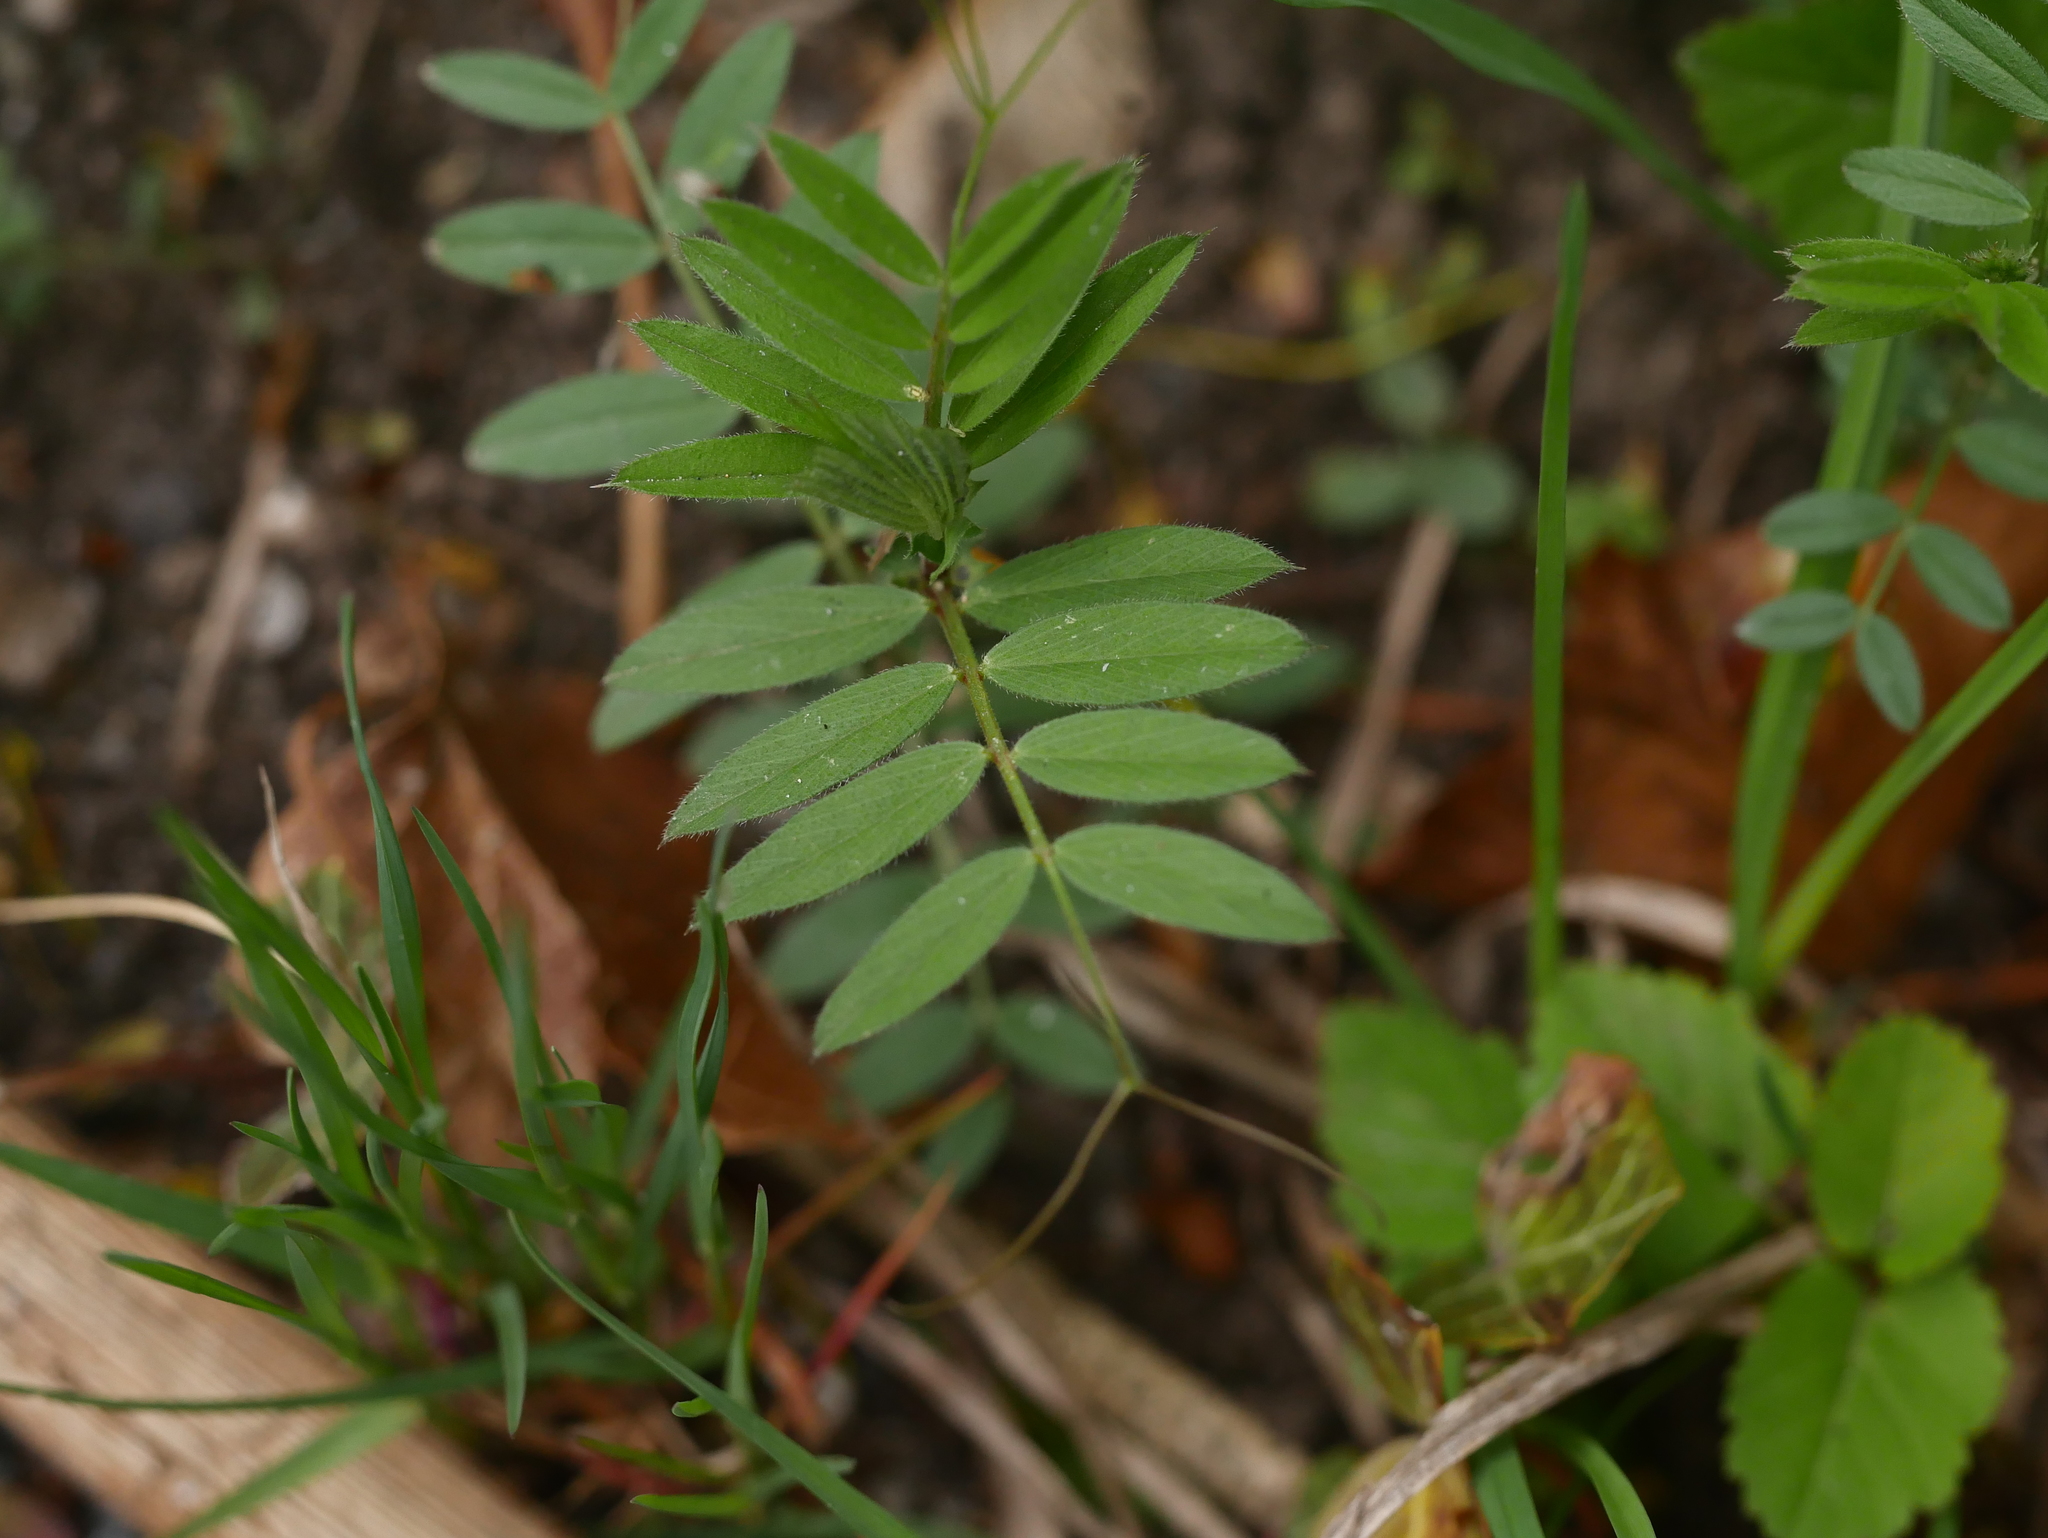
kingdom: Plantae
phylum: Tracheophyta
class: Magnoliopsida
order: Fabales
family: Fabaceae
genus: Vicia
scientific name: Vicia sativa
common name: Garden vetch
